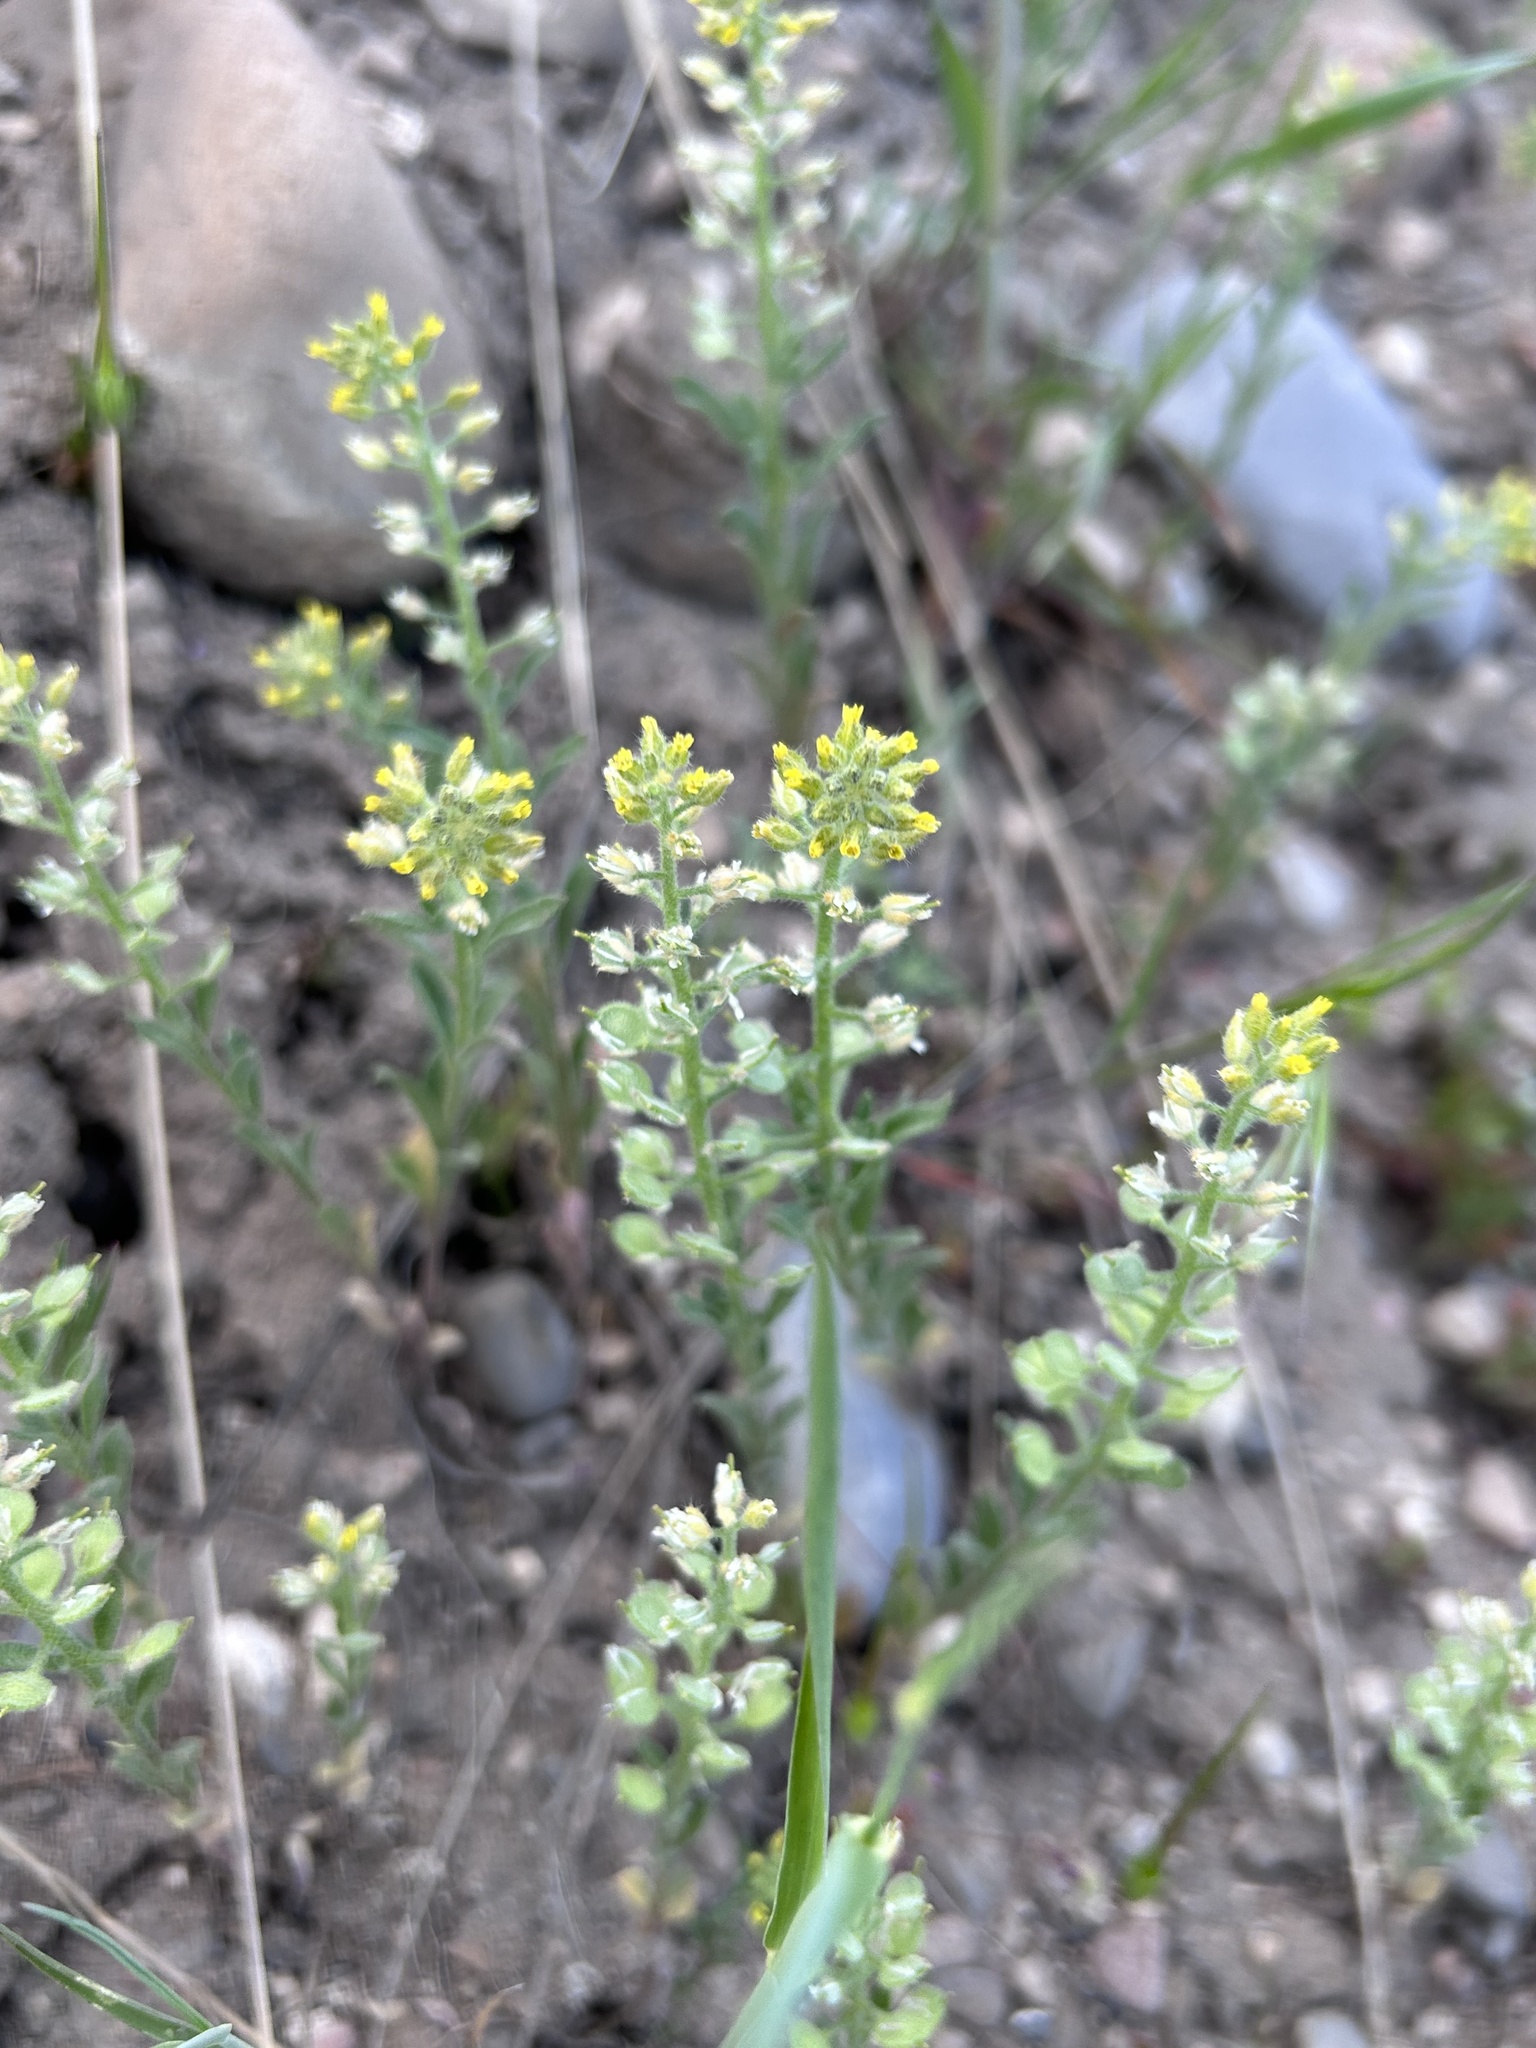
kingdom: Plantae
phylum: Tracheophyta
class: Magnoliopsida
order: Brassicales
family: Brassicaceae
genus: Alyssum
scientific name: Alyssum simplex
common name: Alyssum
